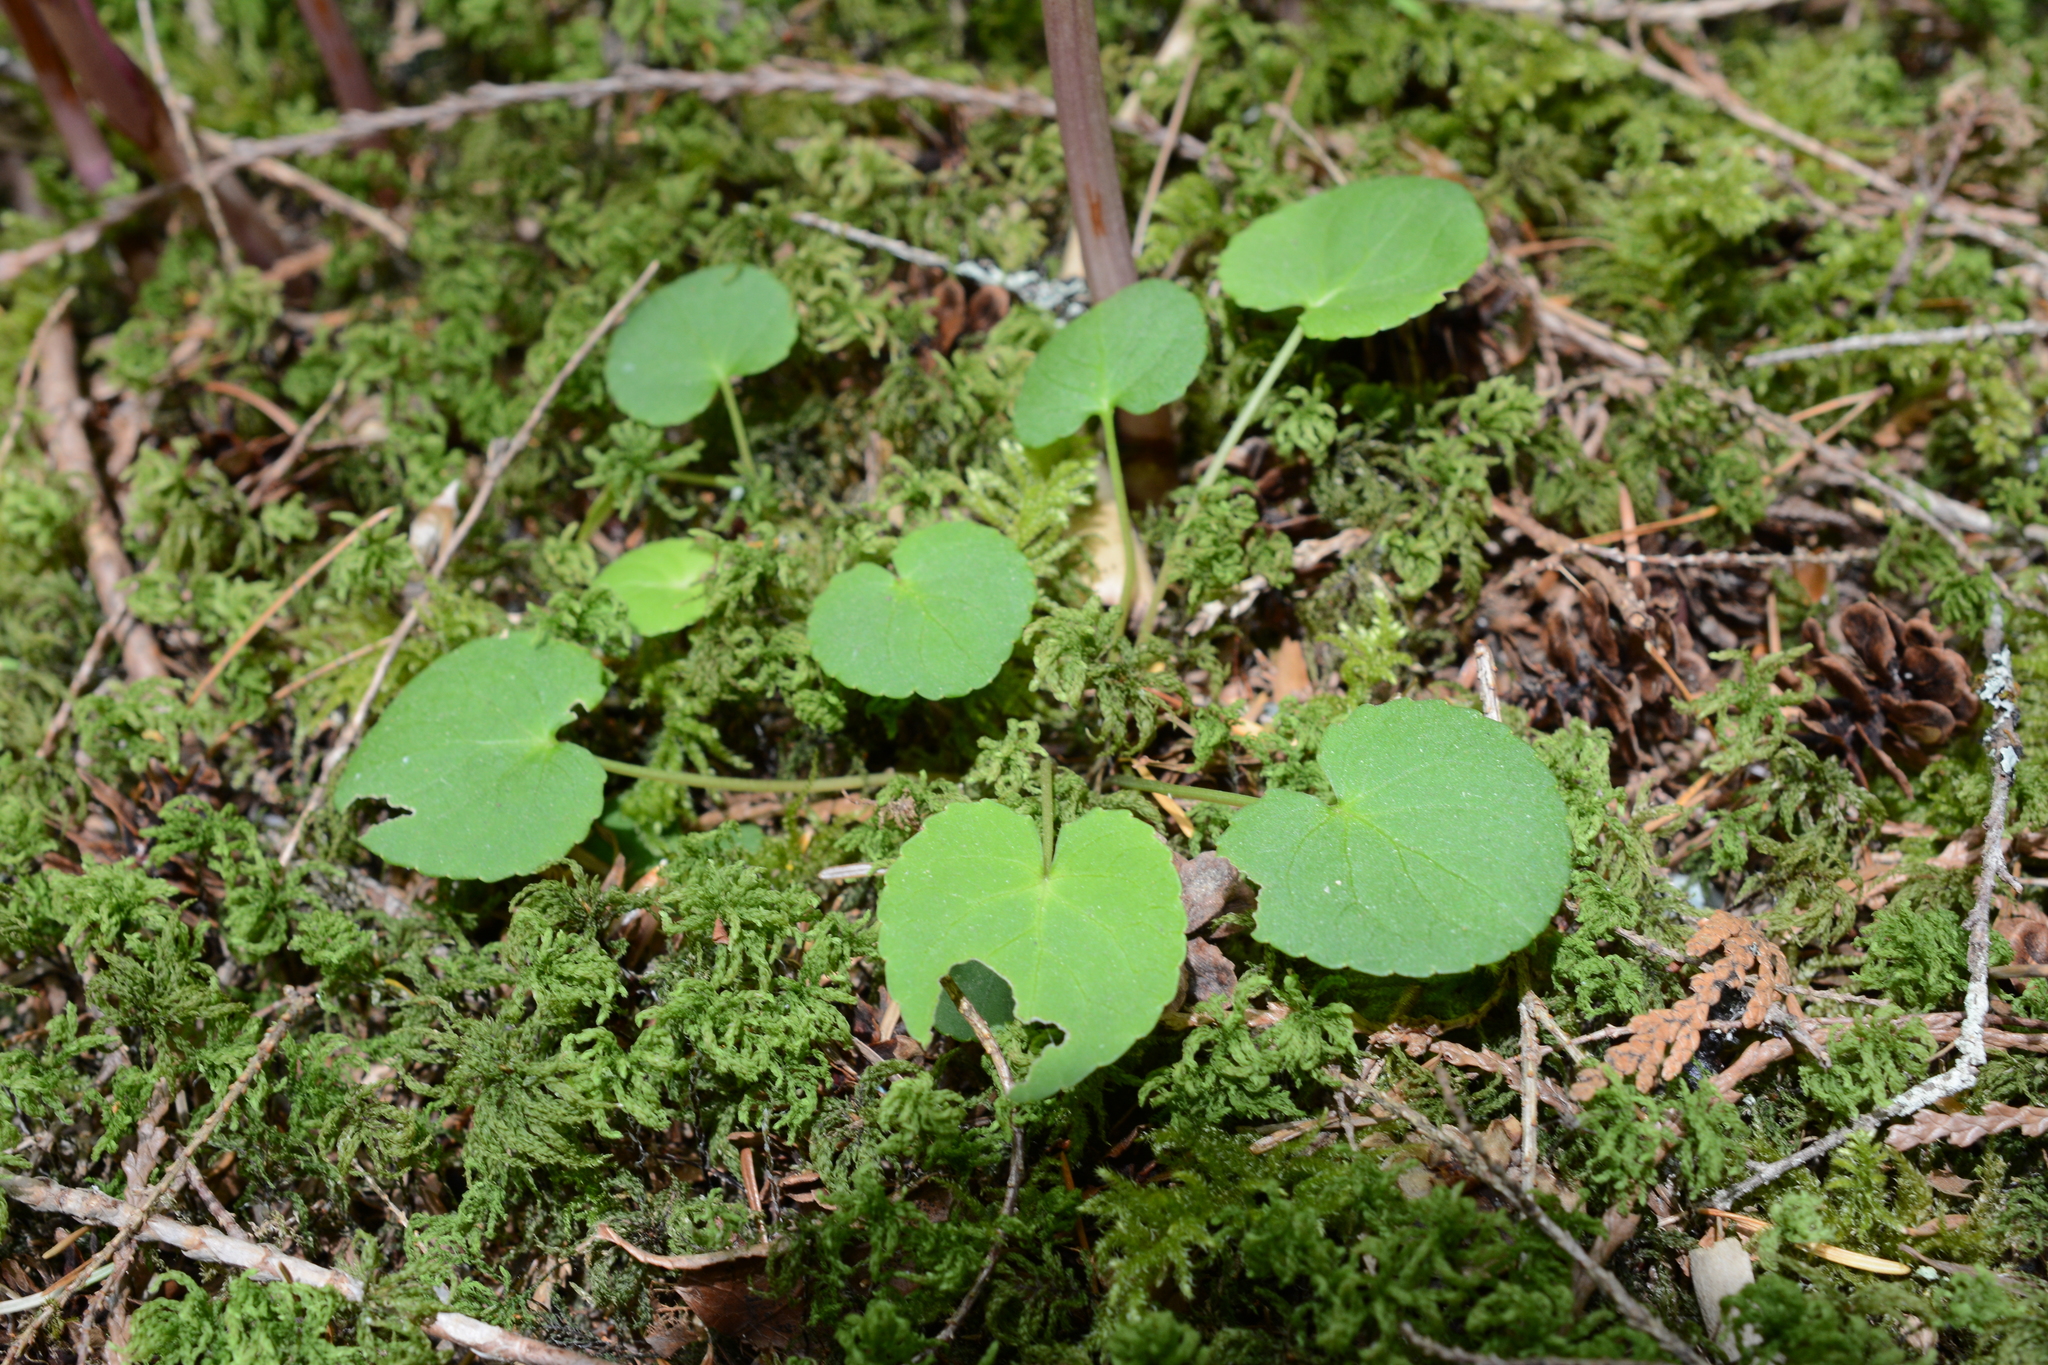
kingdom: Plantae
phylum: Tracheophyta
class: Magnoliopsida
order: Malpighiales
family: Violaceae
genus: Viola
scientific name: Viola sempervirens
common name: Evergreen violet
